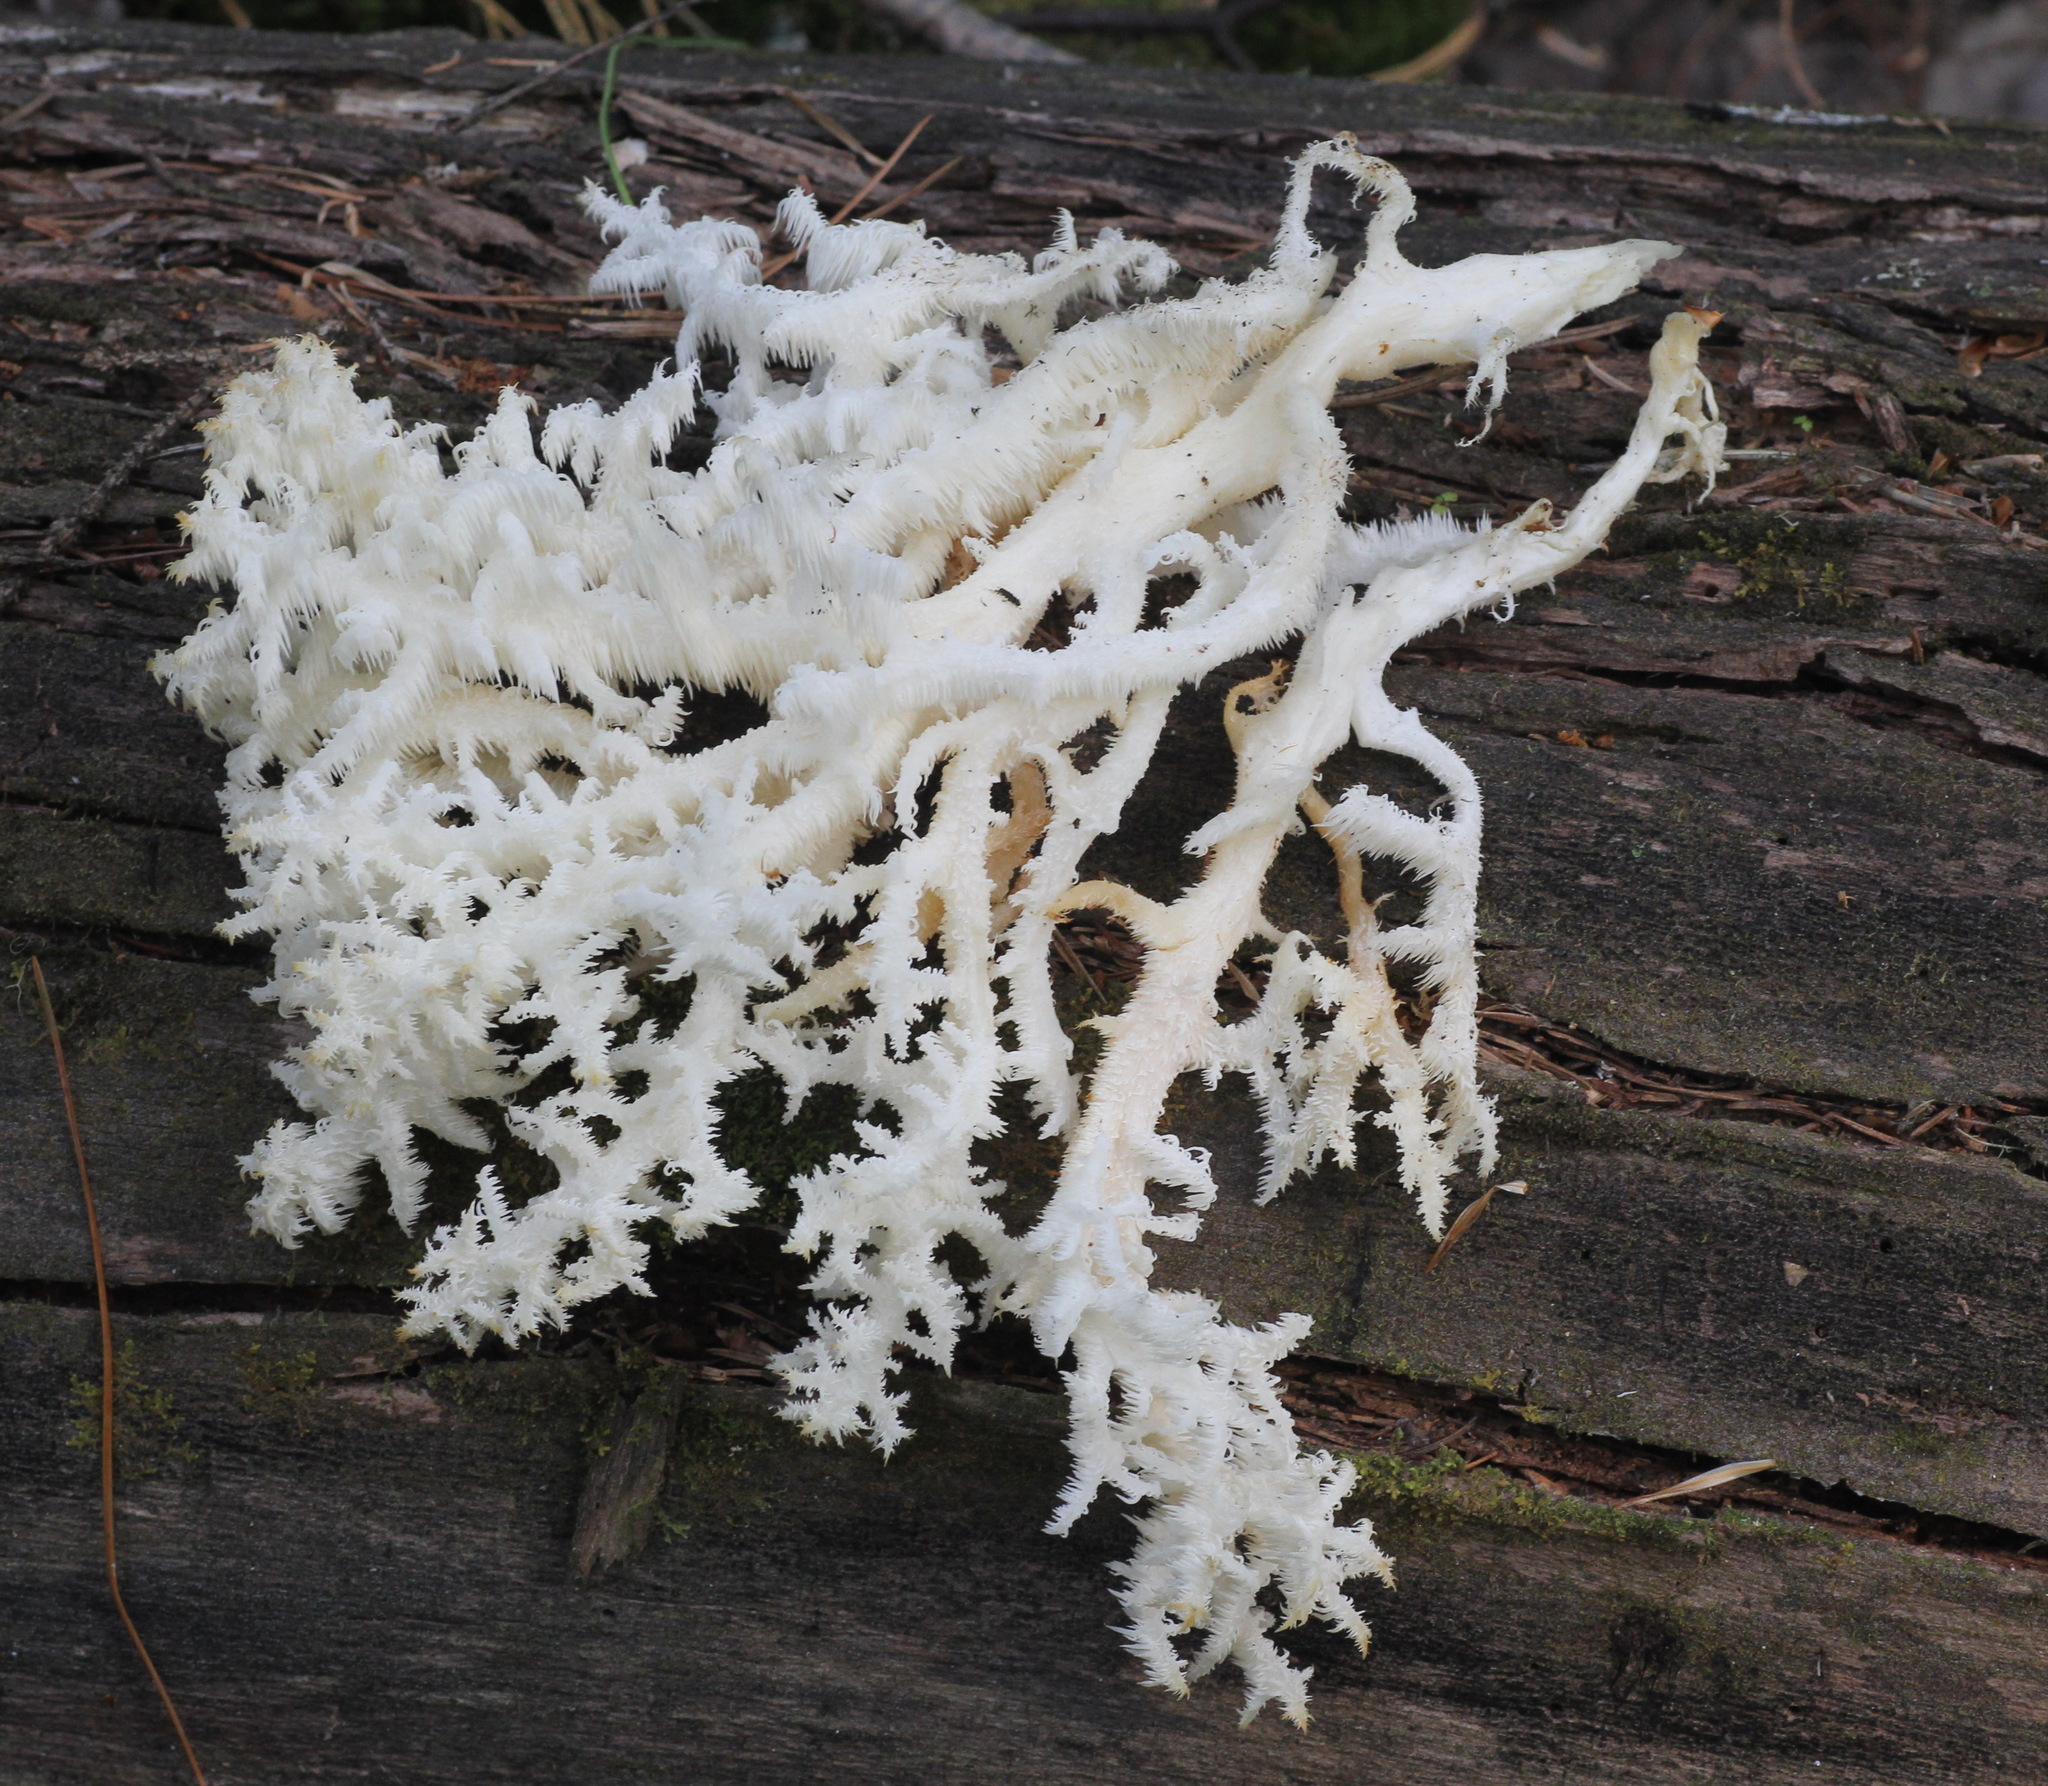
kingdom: Fungi
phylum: Basidiomycota
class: Agaricomycetes
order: Russulales
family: Hericiaceae
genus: Hericium
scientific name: Hericium coralloides
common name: Coral tooth
